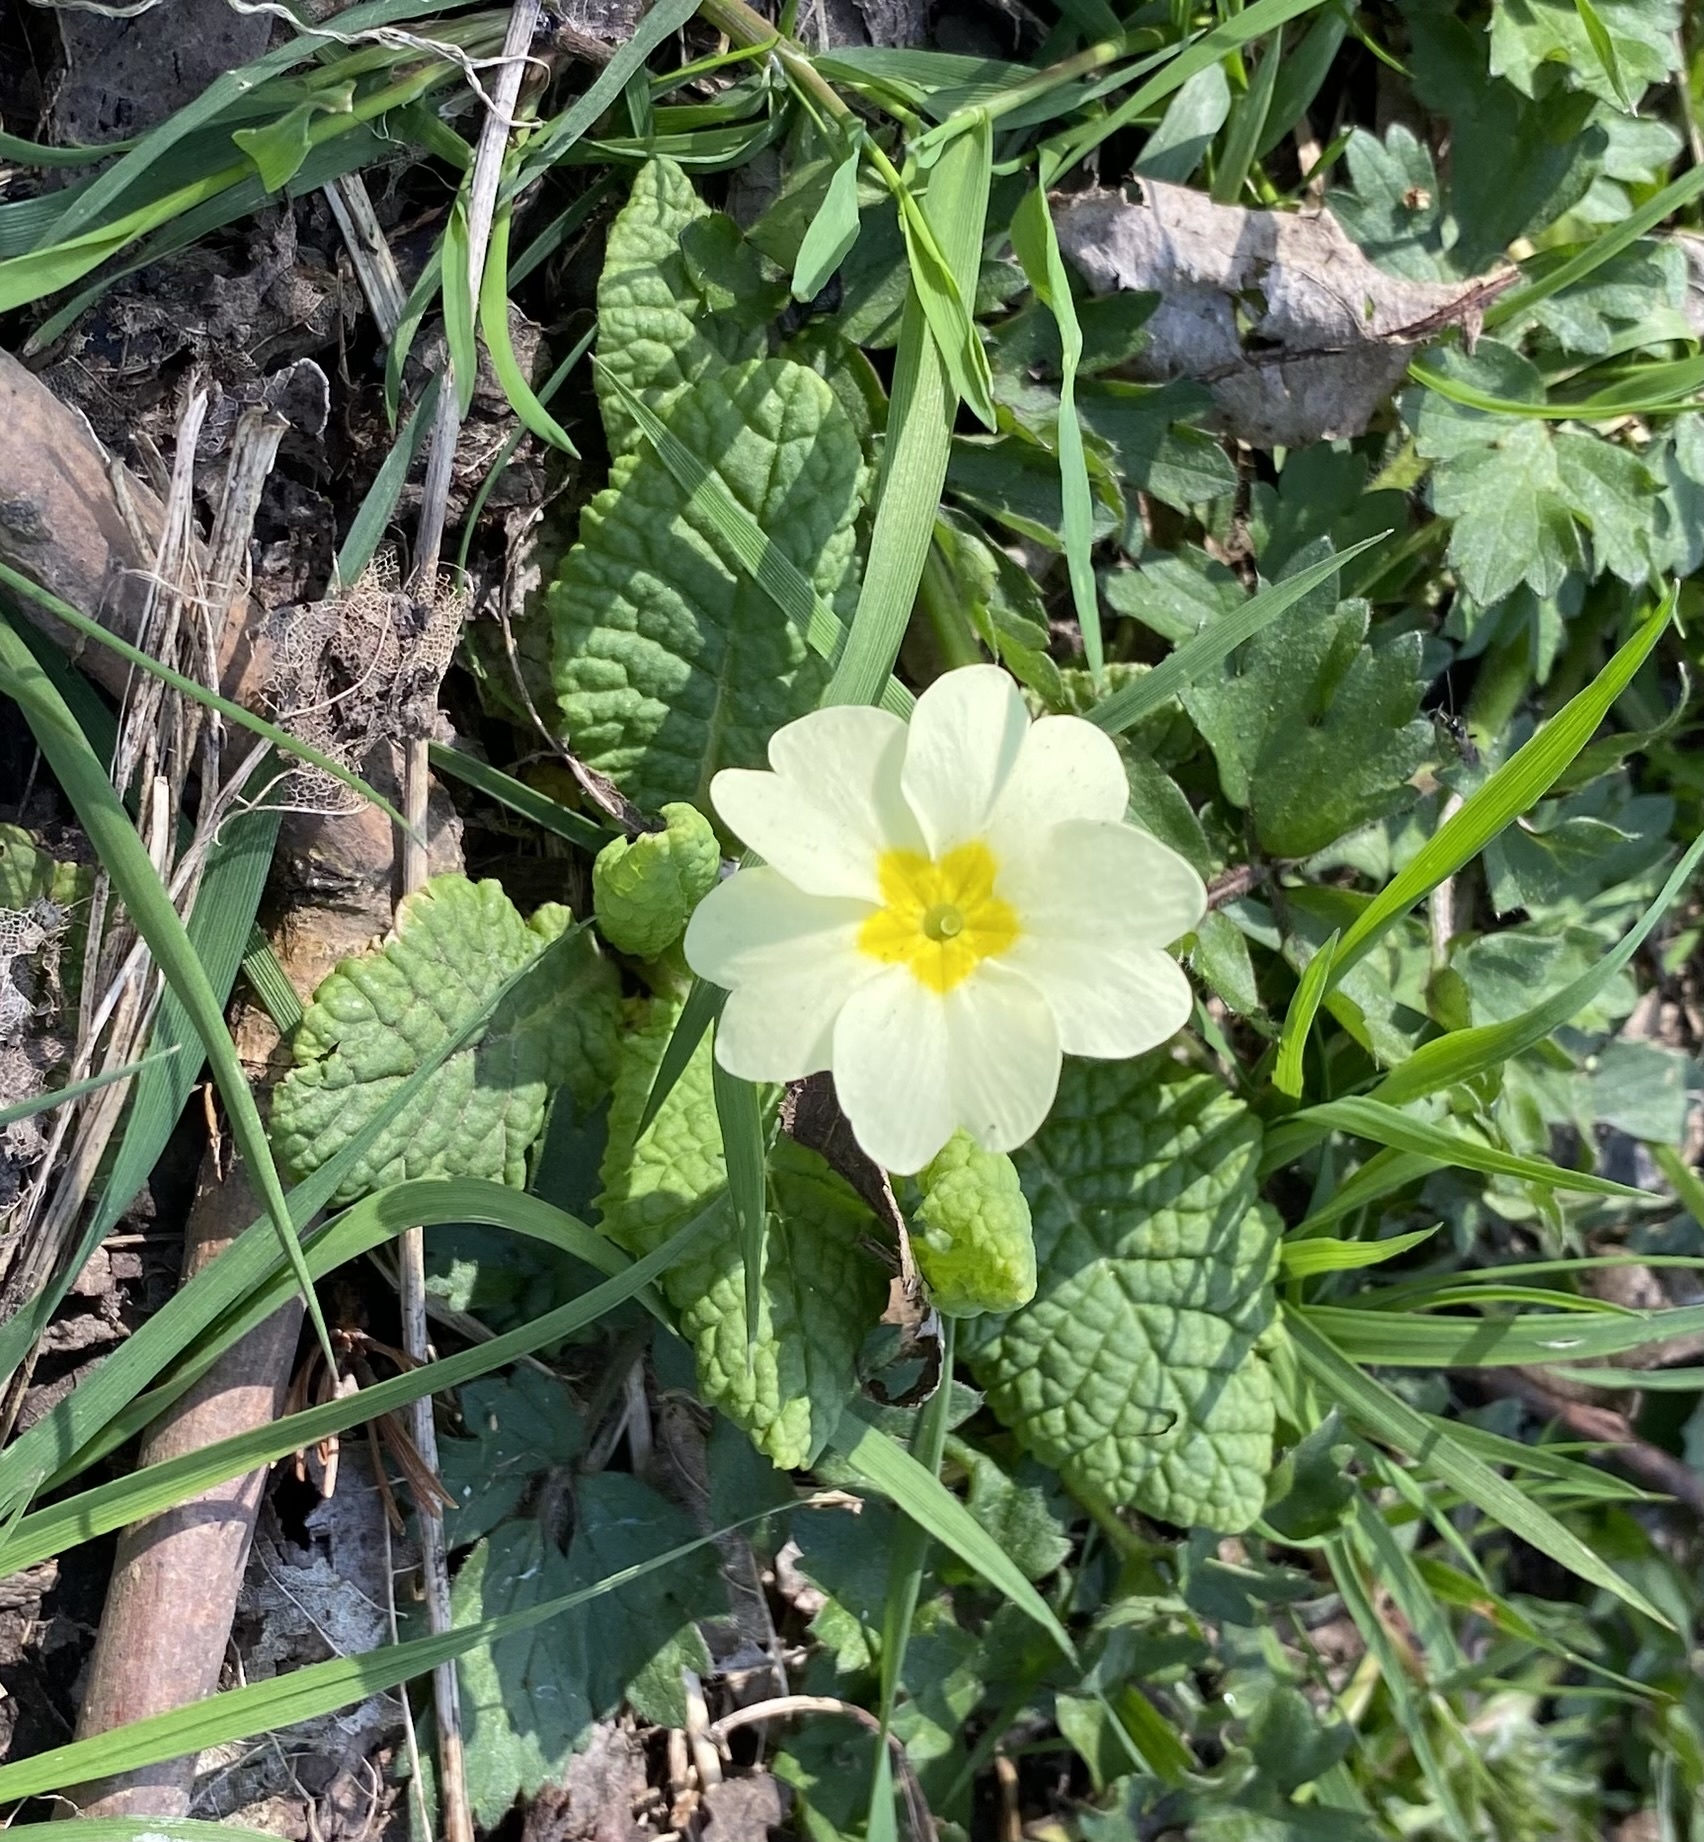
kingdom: Plantae
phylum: Tracheophyta
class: Magnoliopsida
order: Ericales
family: Primulaceae
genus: Primula
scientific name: Primula vulgaris
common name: Primrose
